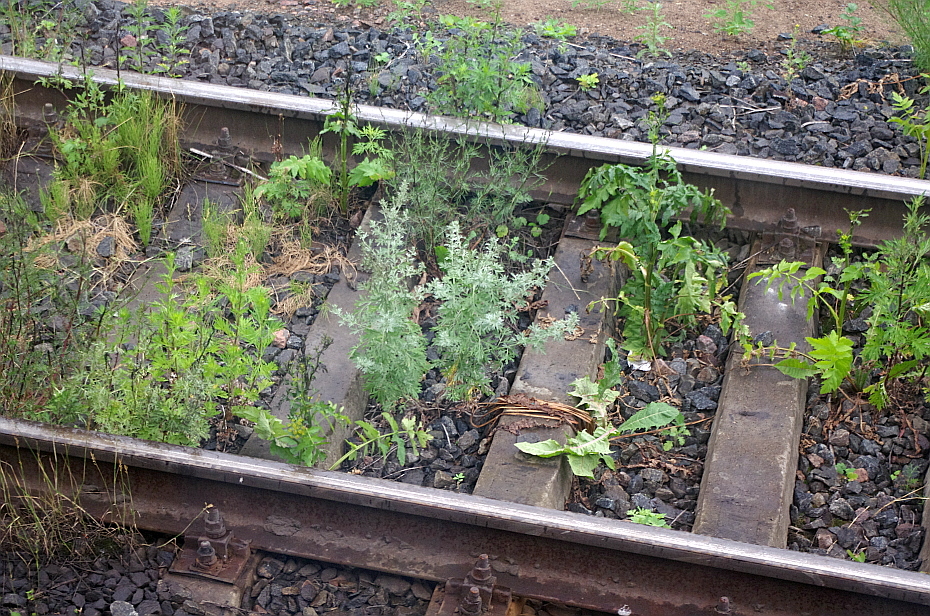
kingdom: Plantae
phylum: Tracheophyta
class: Magnoliopsida
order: Asterales
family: Asteraceae
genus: Artemisia
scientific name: Artemisia vulgaris
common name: Mugwort
